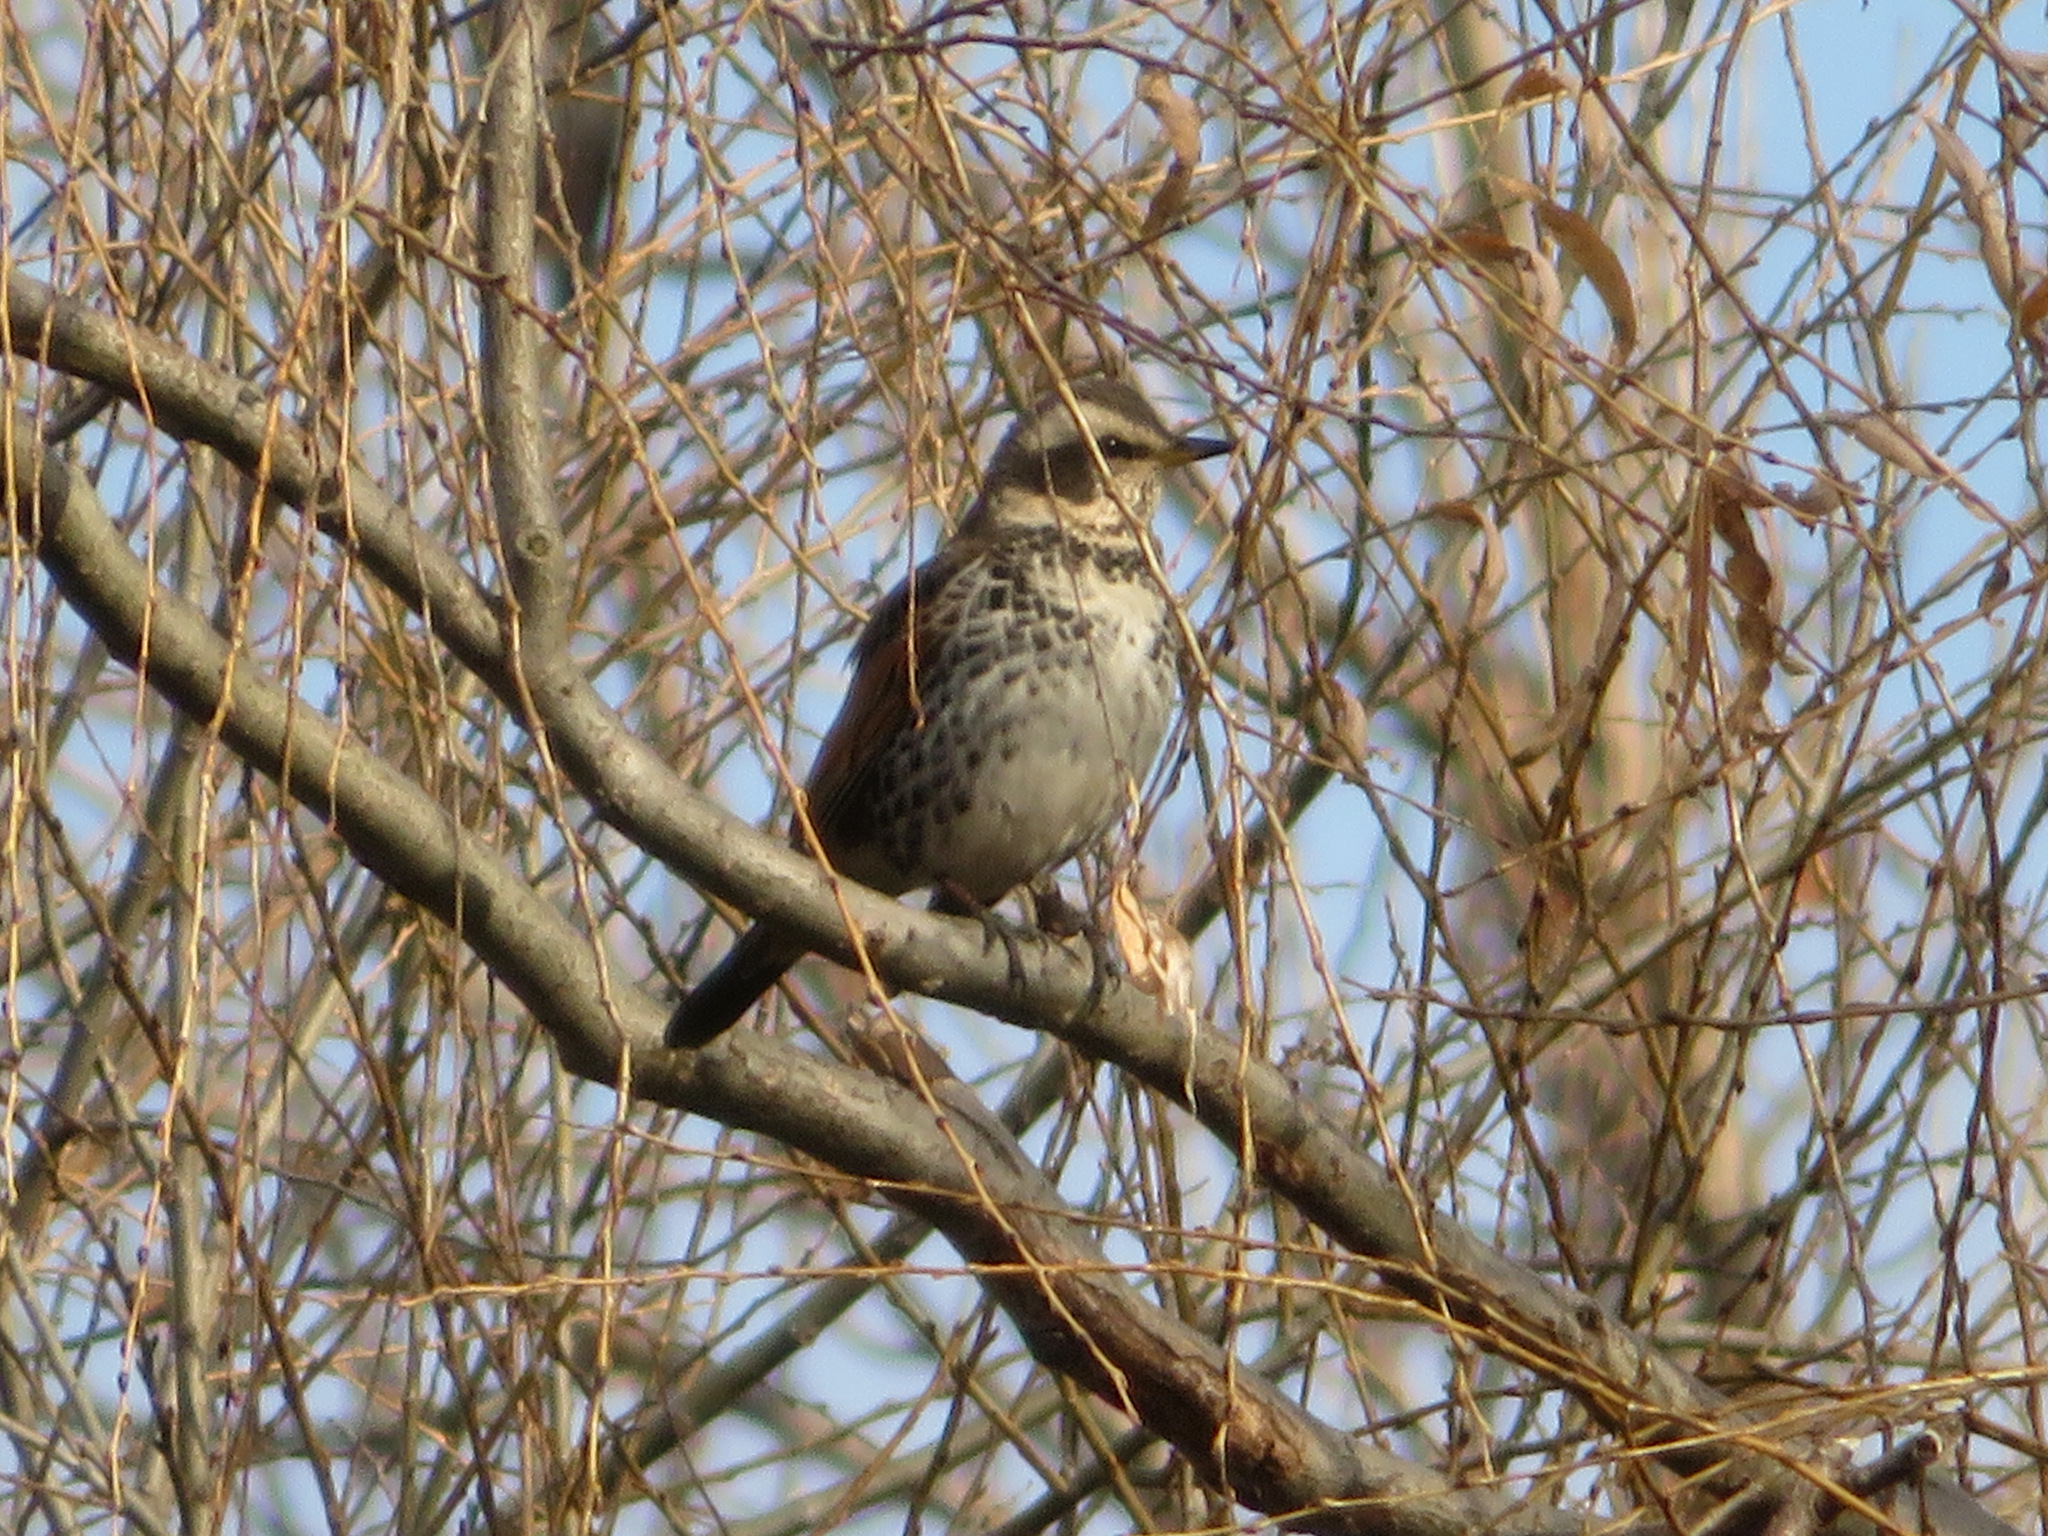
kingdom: Animalia
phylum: Chordata
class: Aves
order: Passeriformes
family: Turdidae
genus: Turdus
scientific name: Turdus eunomus
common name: Dusky thrush
